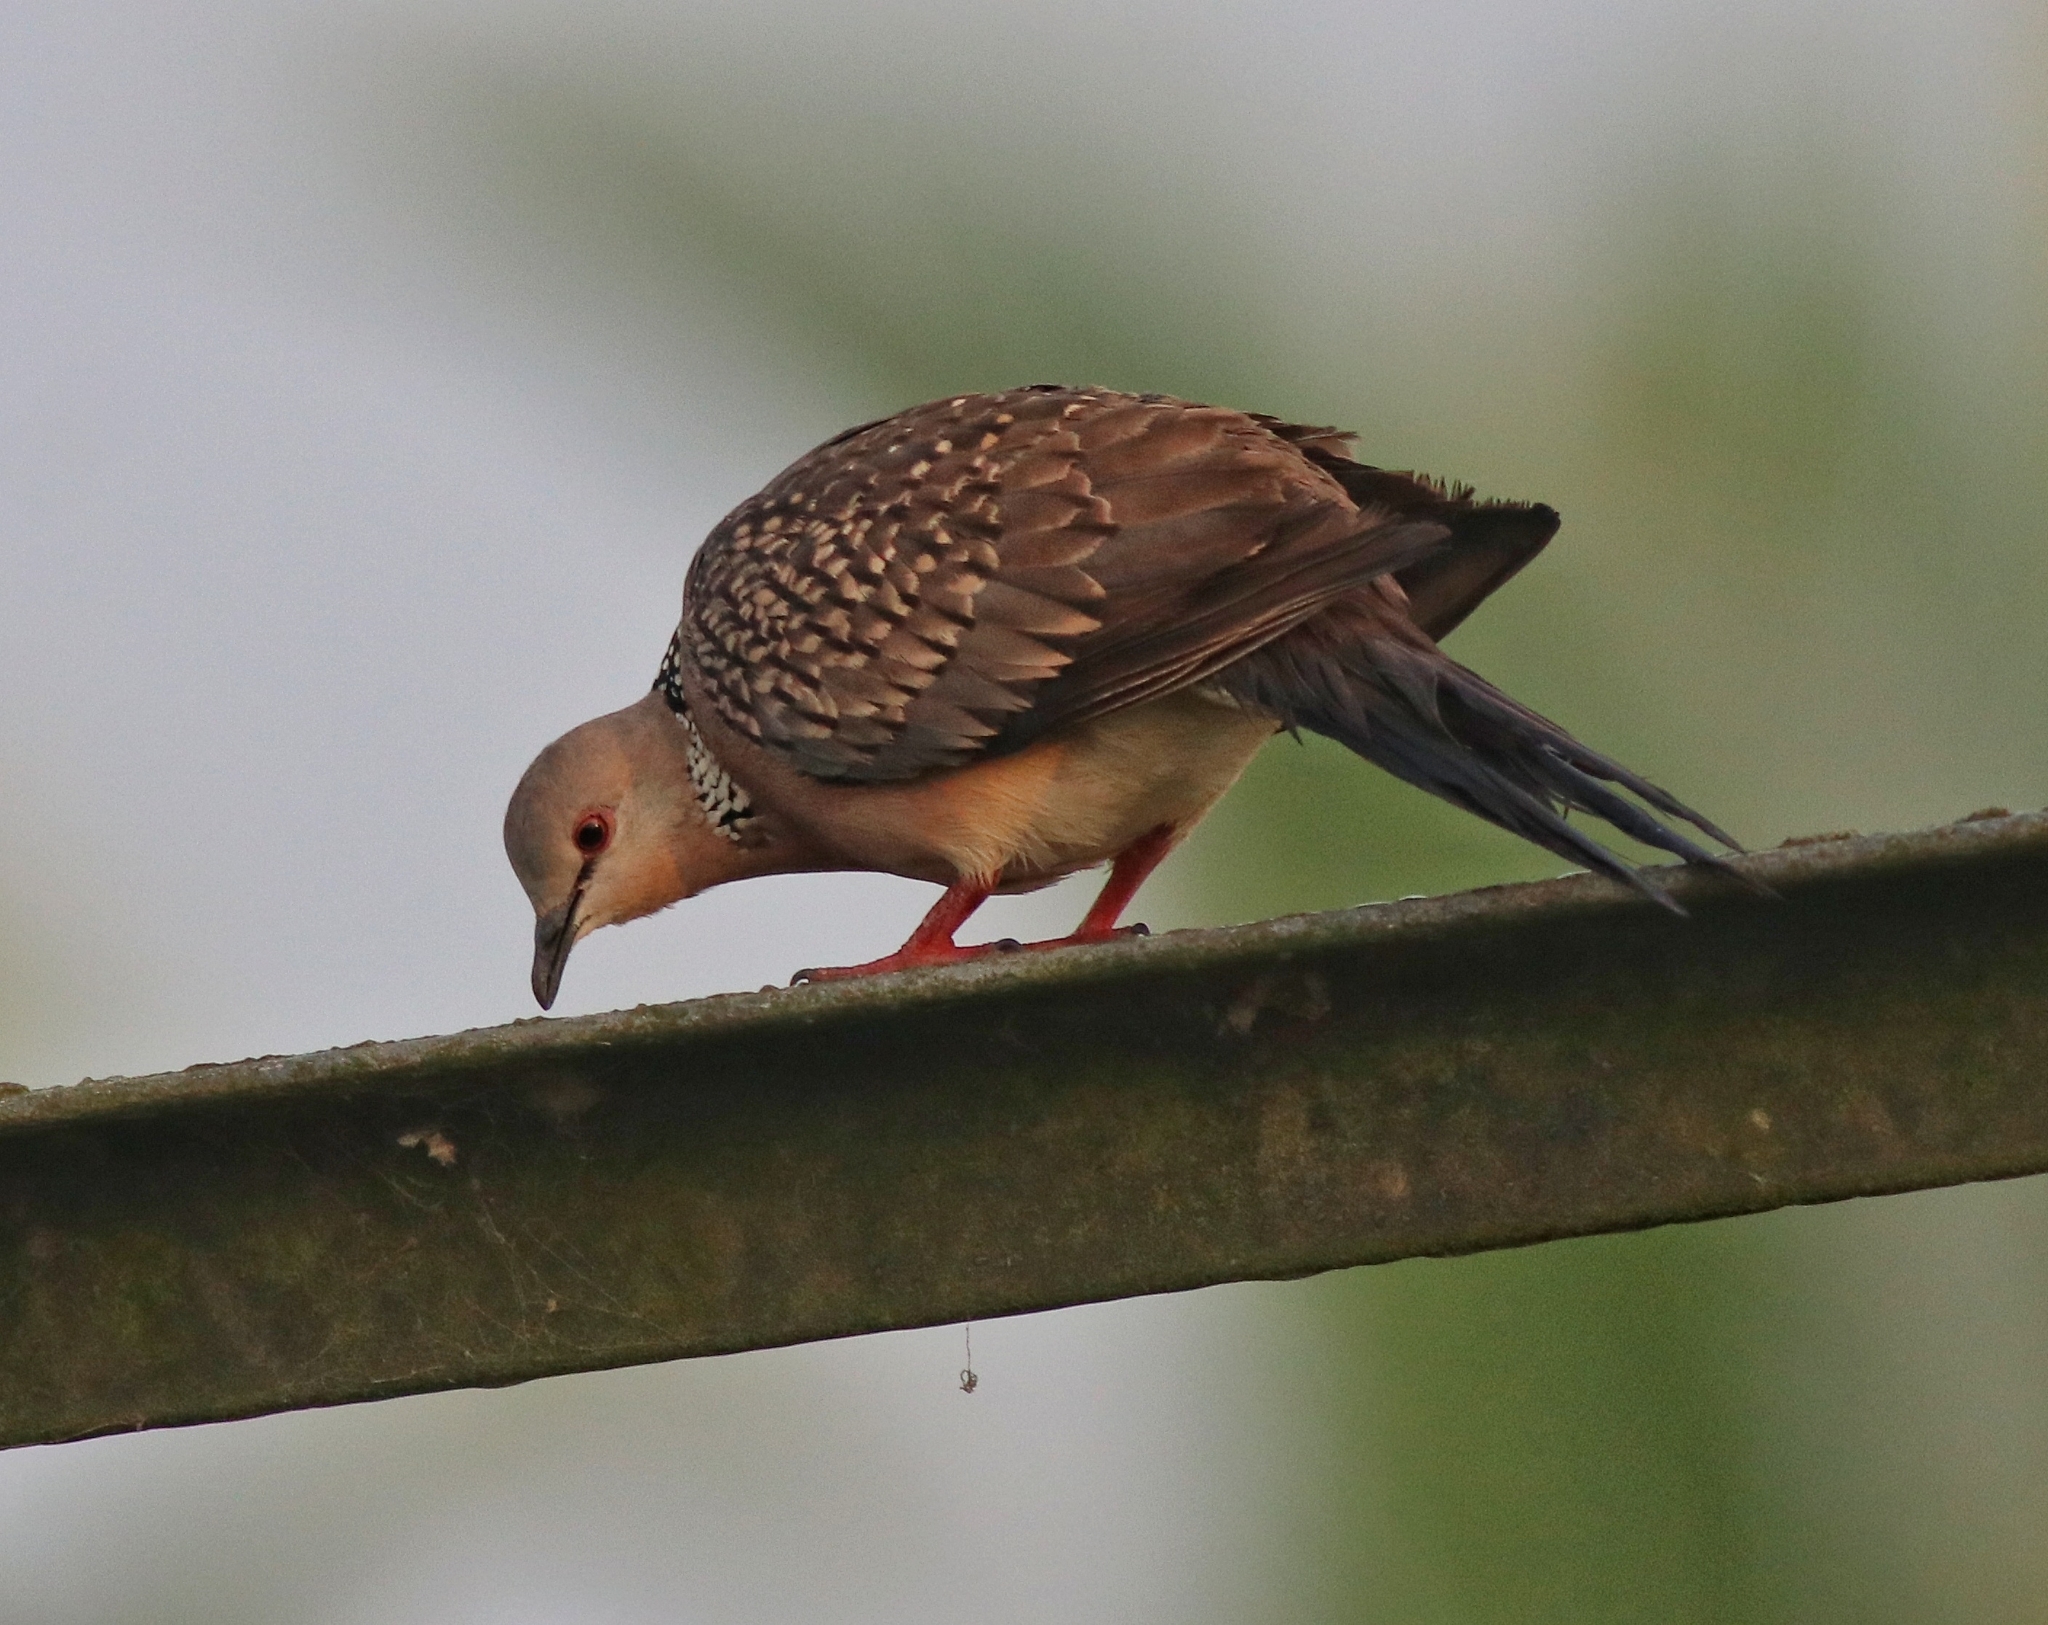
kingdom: Animalia
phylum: Chordata
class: Aves
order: Columbiformes
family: Columbidae
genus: Spilopelia
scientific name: Spilopelia chinensis
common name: Spotted dove
